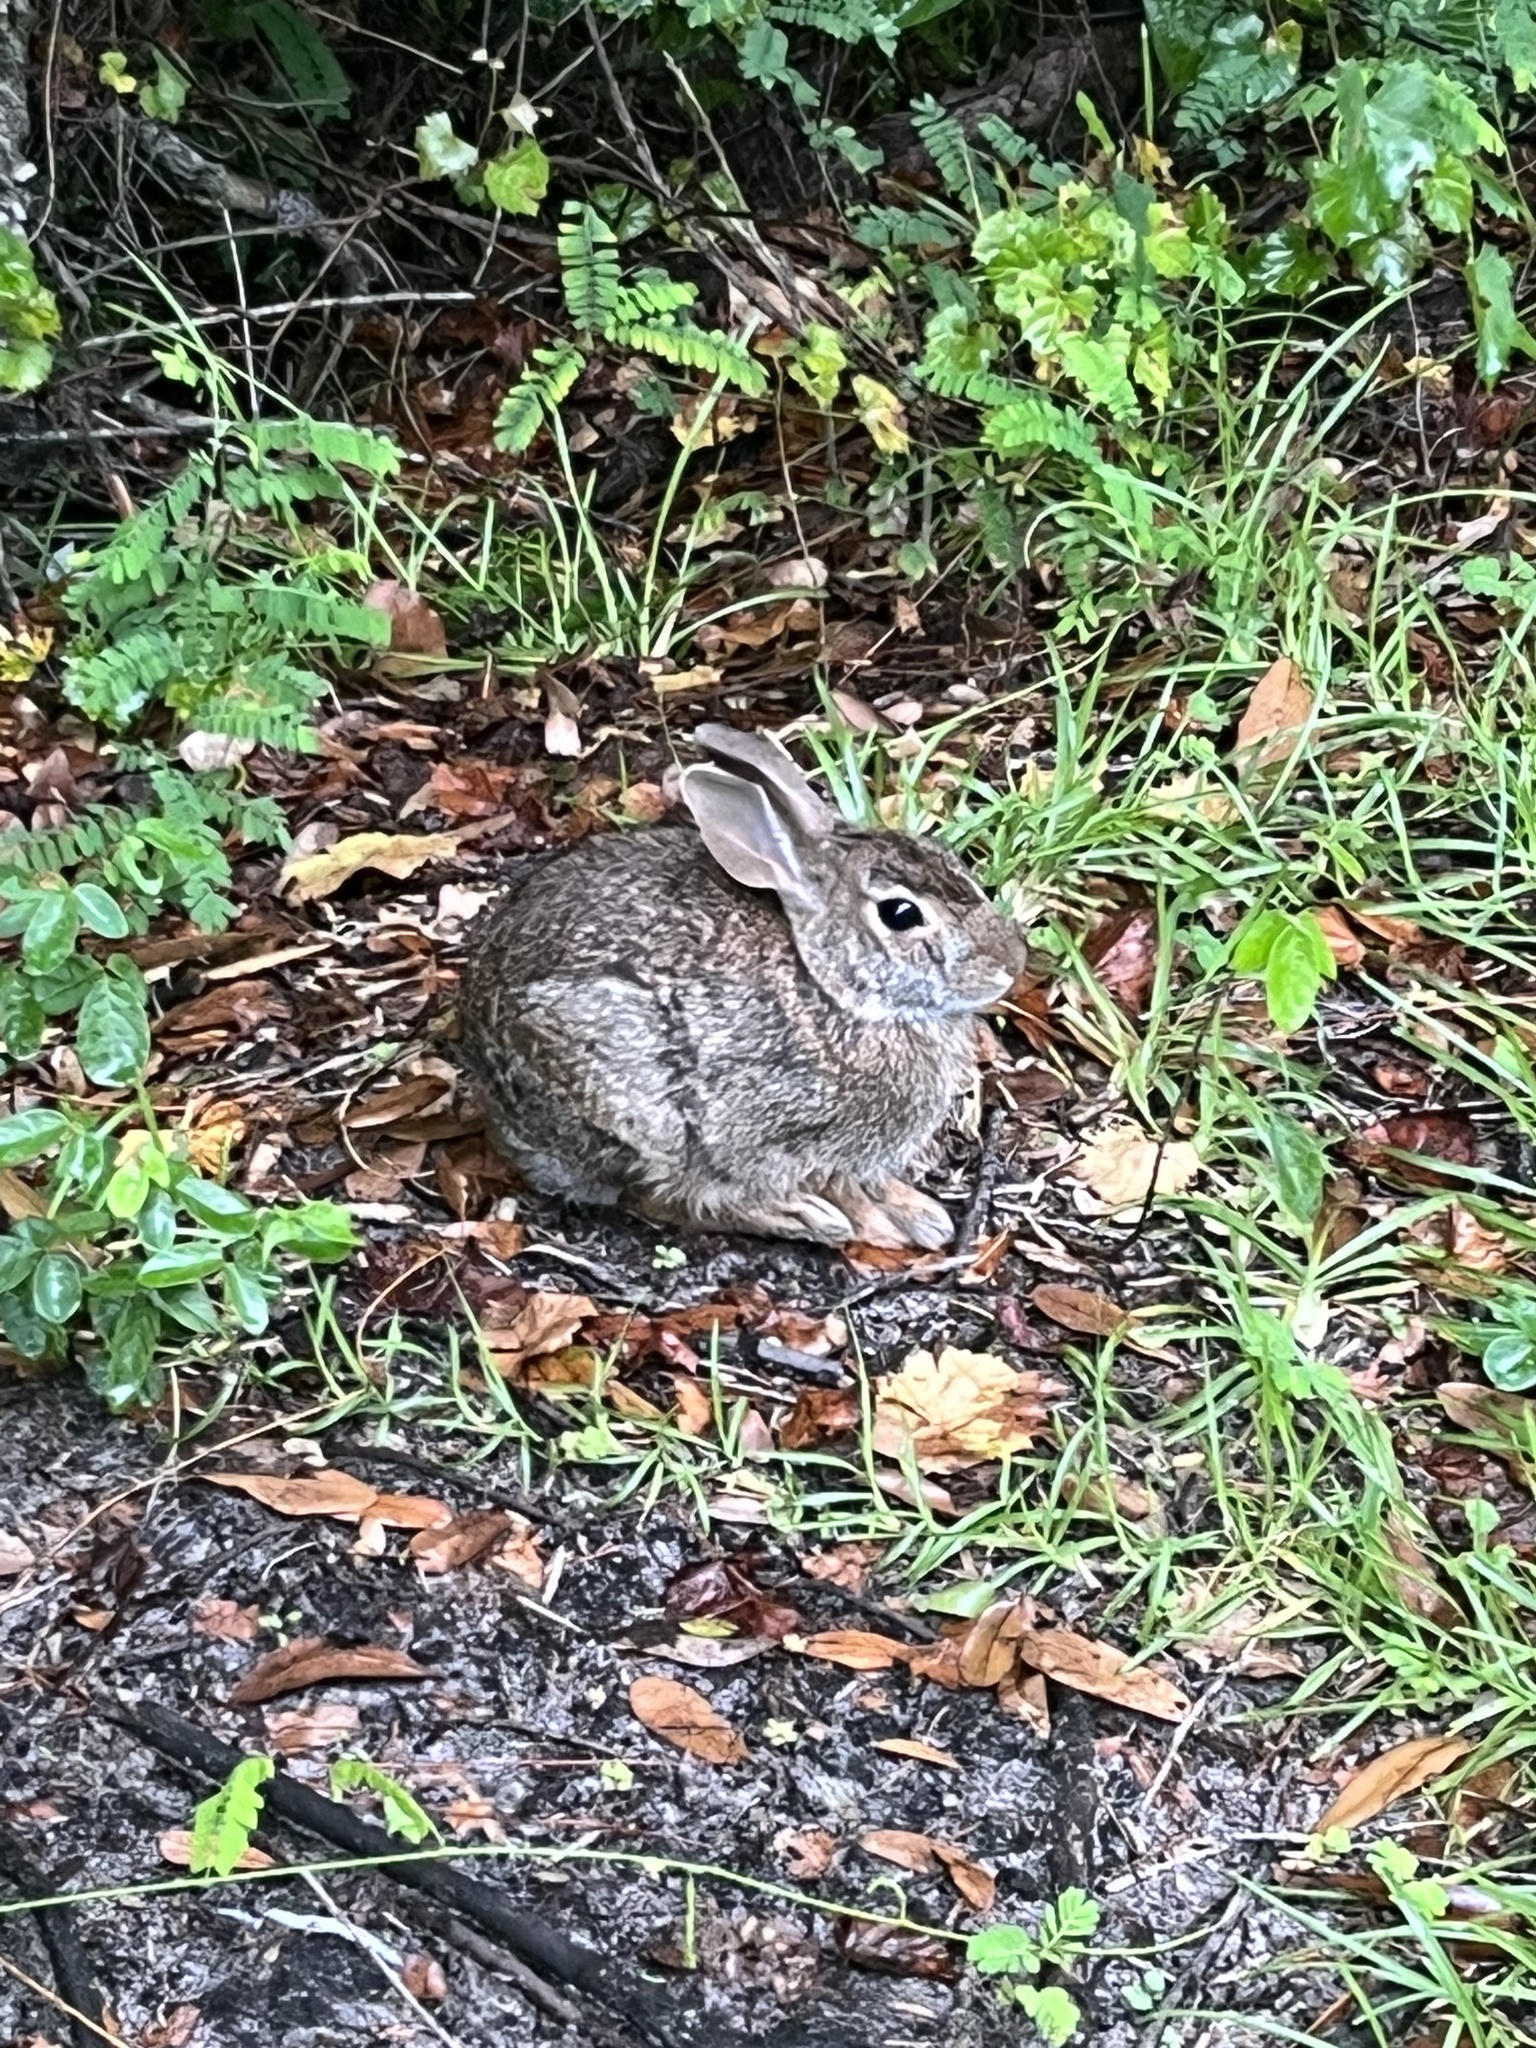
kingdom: Animalia
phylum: Chordata
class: Mammalia
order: Lagomorpha
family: Leporidae
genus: Sylvilagus
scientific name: Sylvilagus floridanus
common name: Eastern cottontail
